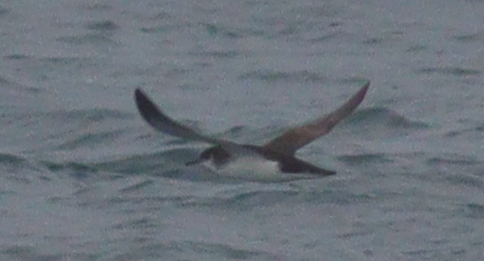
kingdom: Animalia
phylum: Chordata
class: Aves
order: Procellariiformes
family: Procellariidae
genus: Puffinus
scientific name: Puffinus puffinus
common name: Manx shearwater
